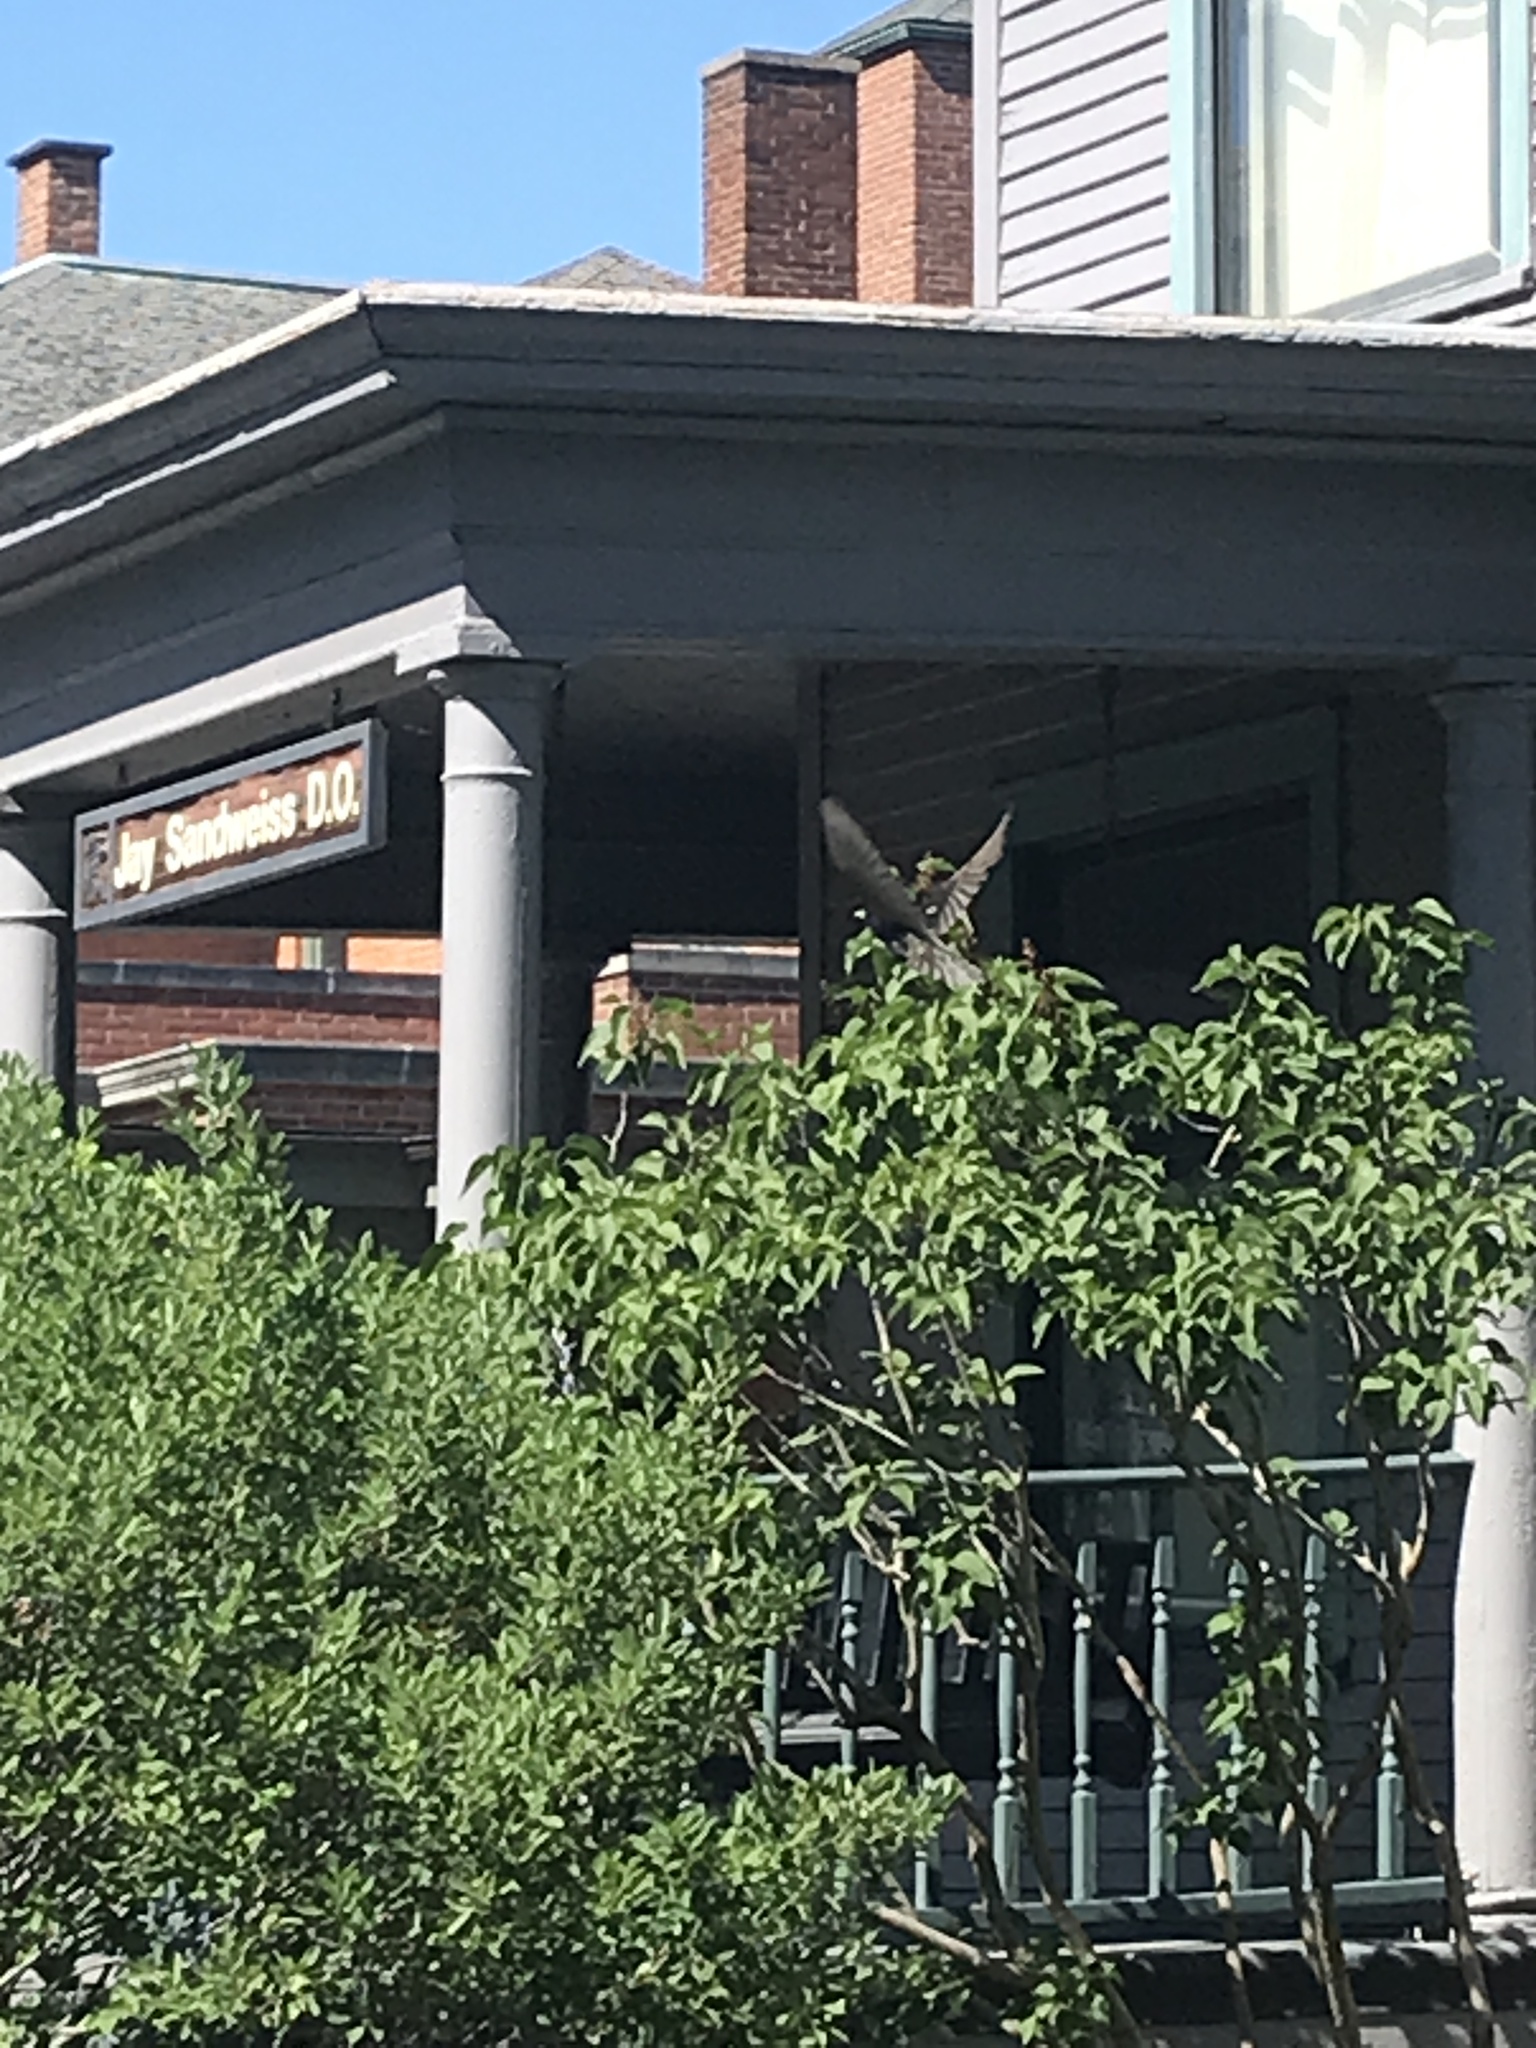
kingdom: Animalia
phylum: Chordata
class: Aves
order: Passeriformes
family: Sturnidae
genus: Sturnus
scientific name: Sturnus vulgaris
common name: Common starling
